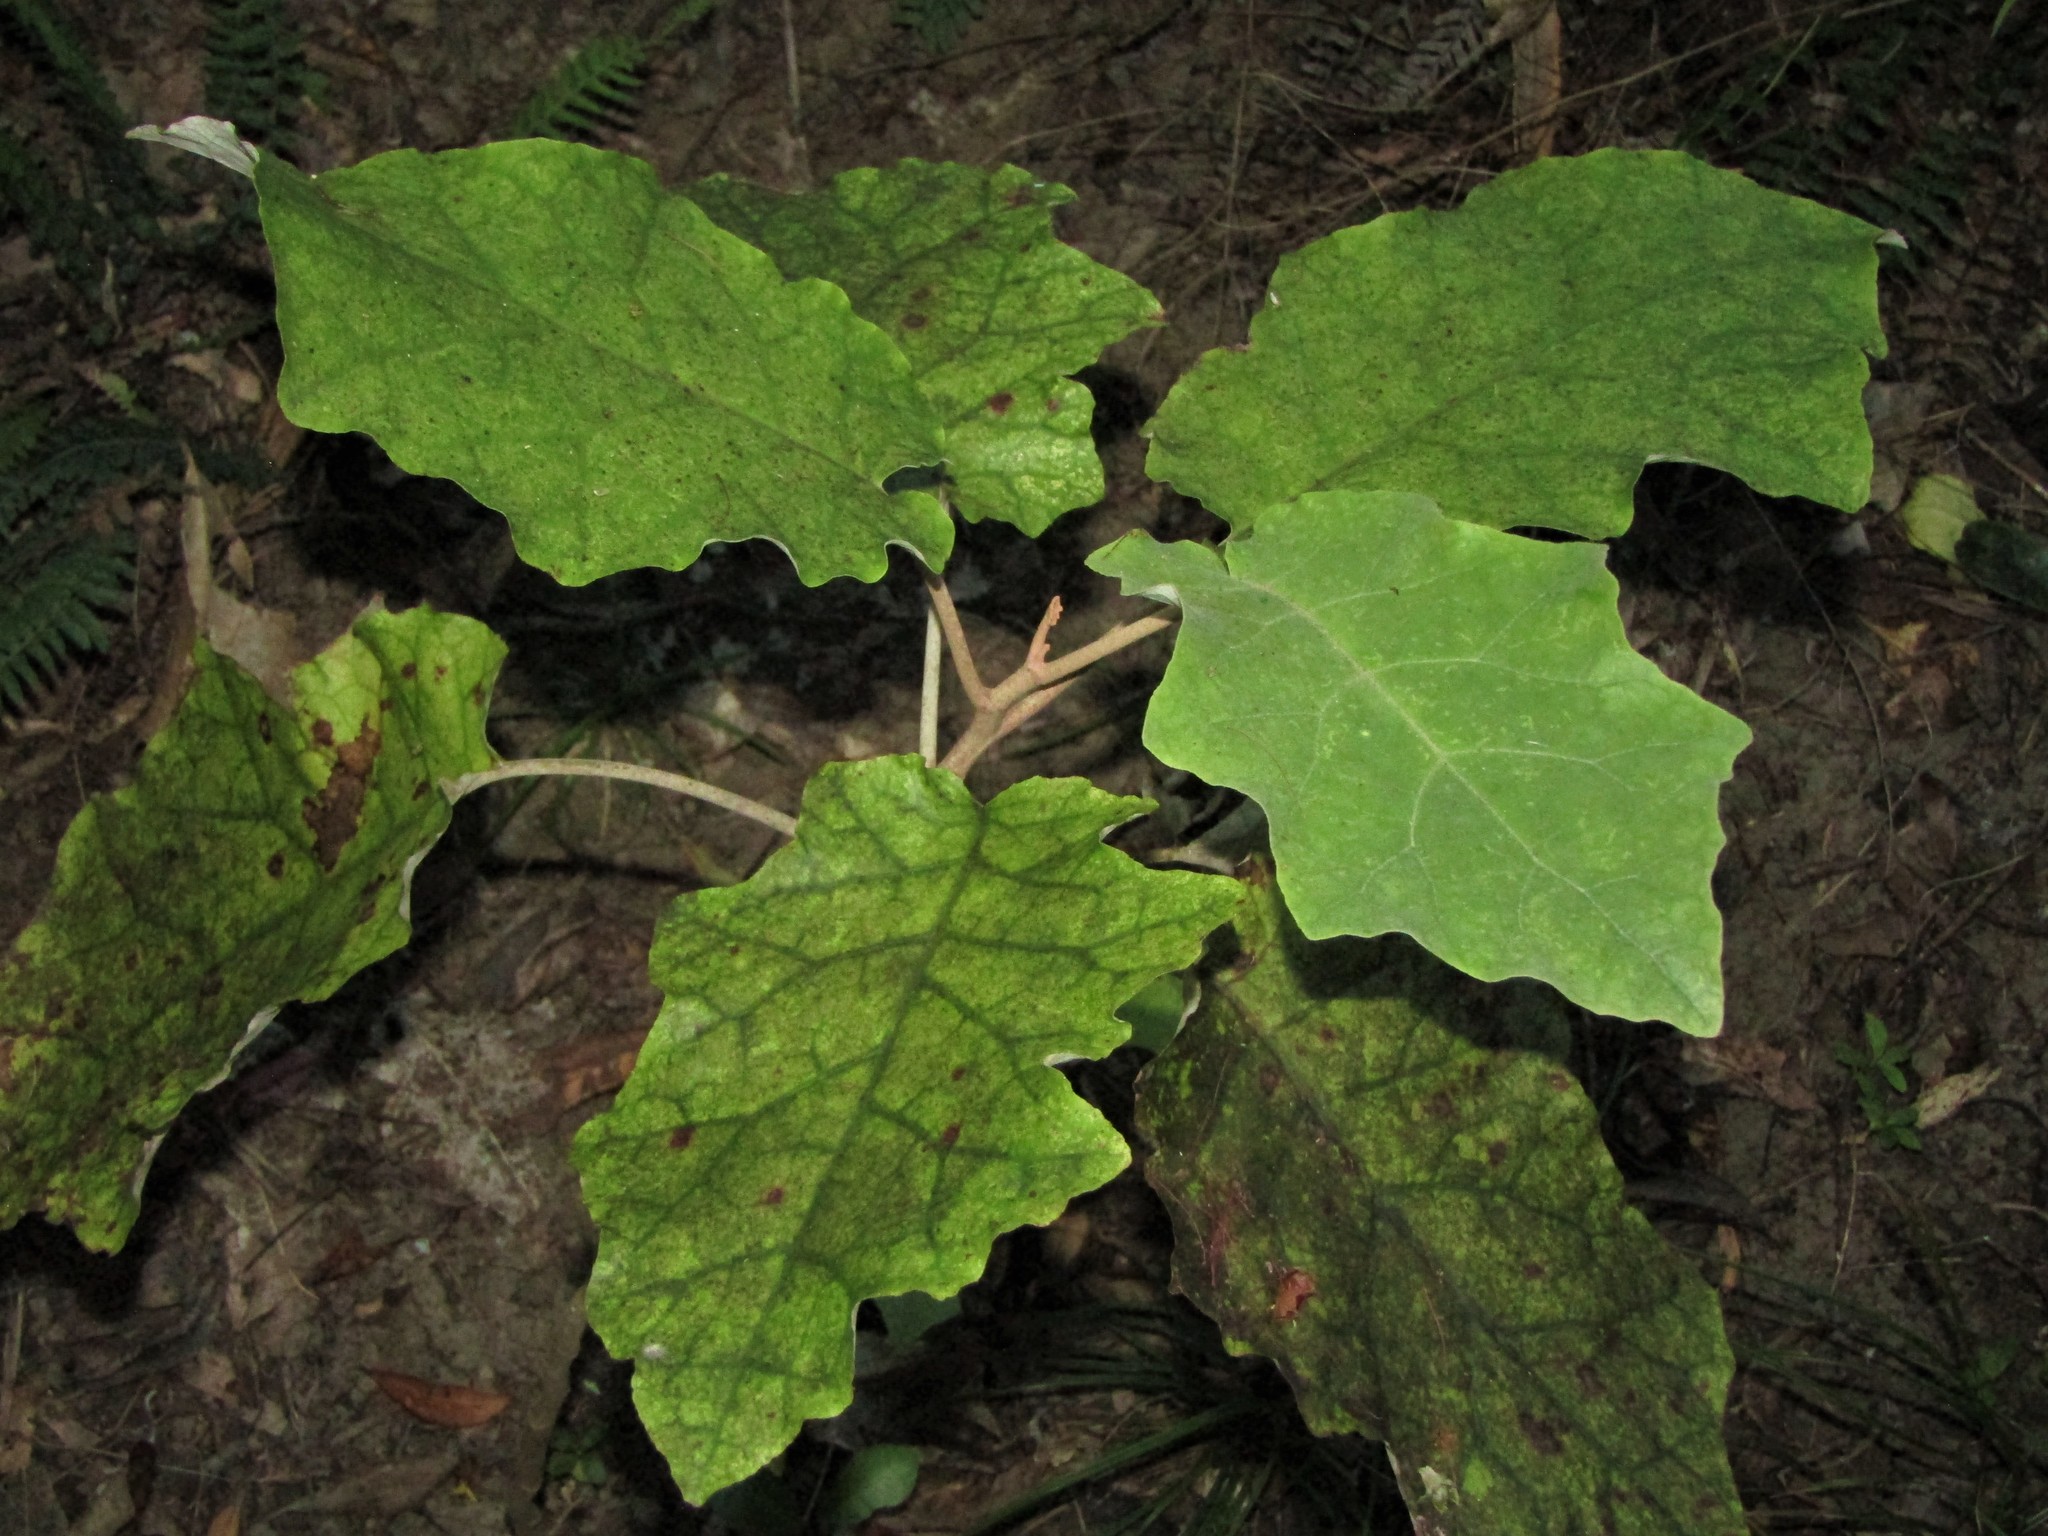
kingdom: Plantae
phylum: Tracheophyta
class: Magnoliopsida
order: Asterales
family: Asteraceae
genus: Brachyglottis
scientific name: Brachyglottis repanda
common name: Hedge ragwort
